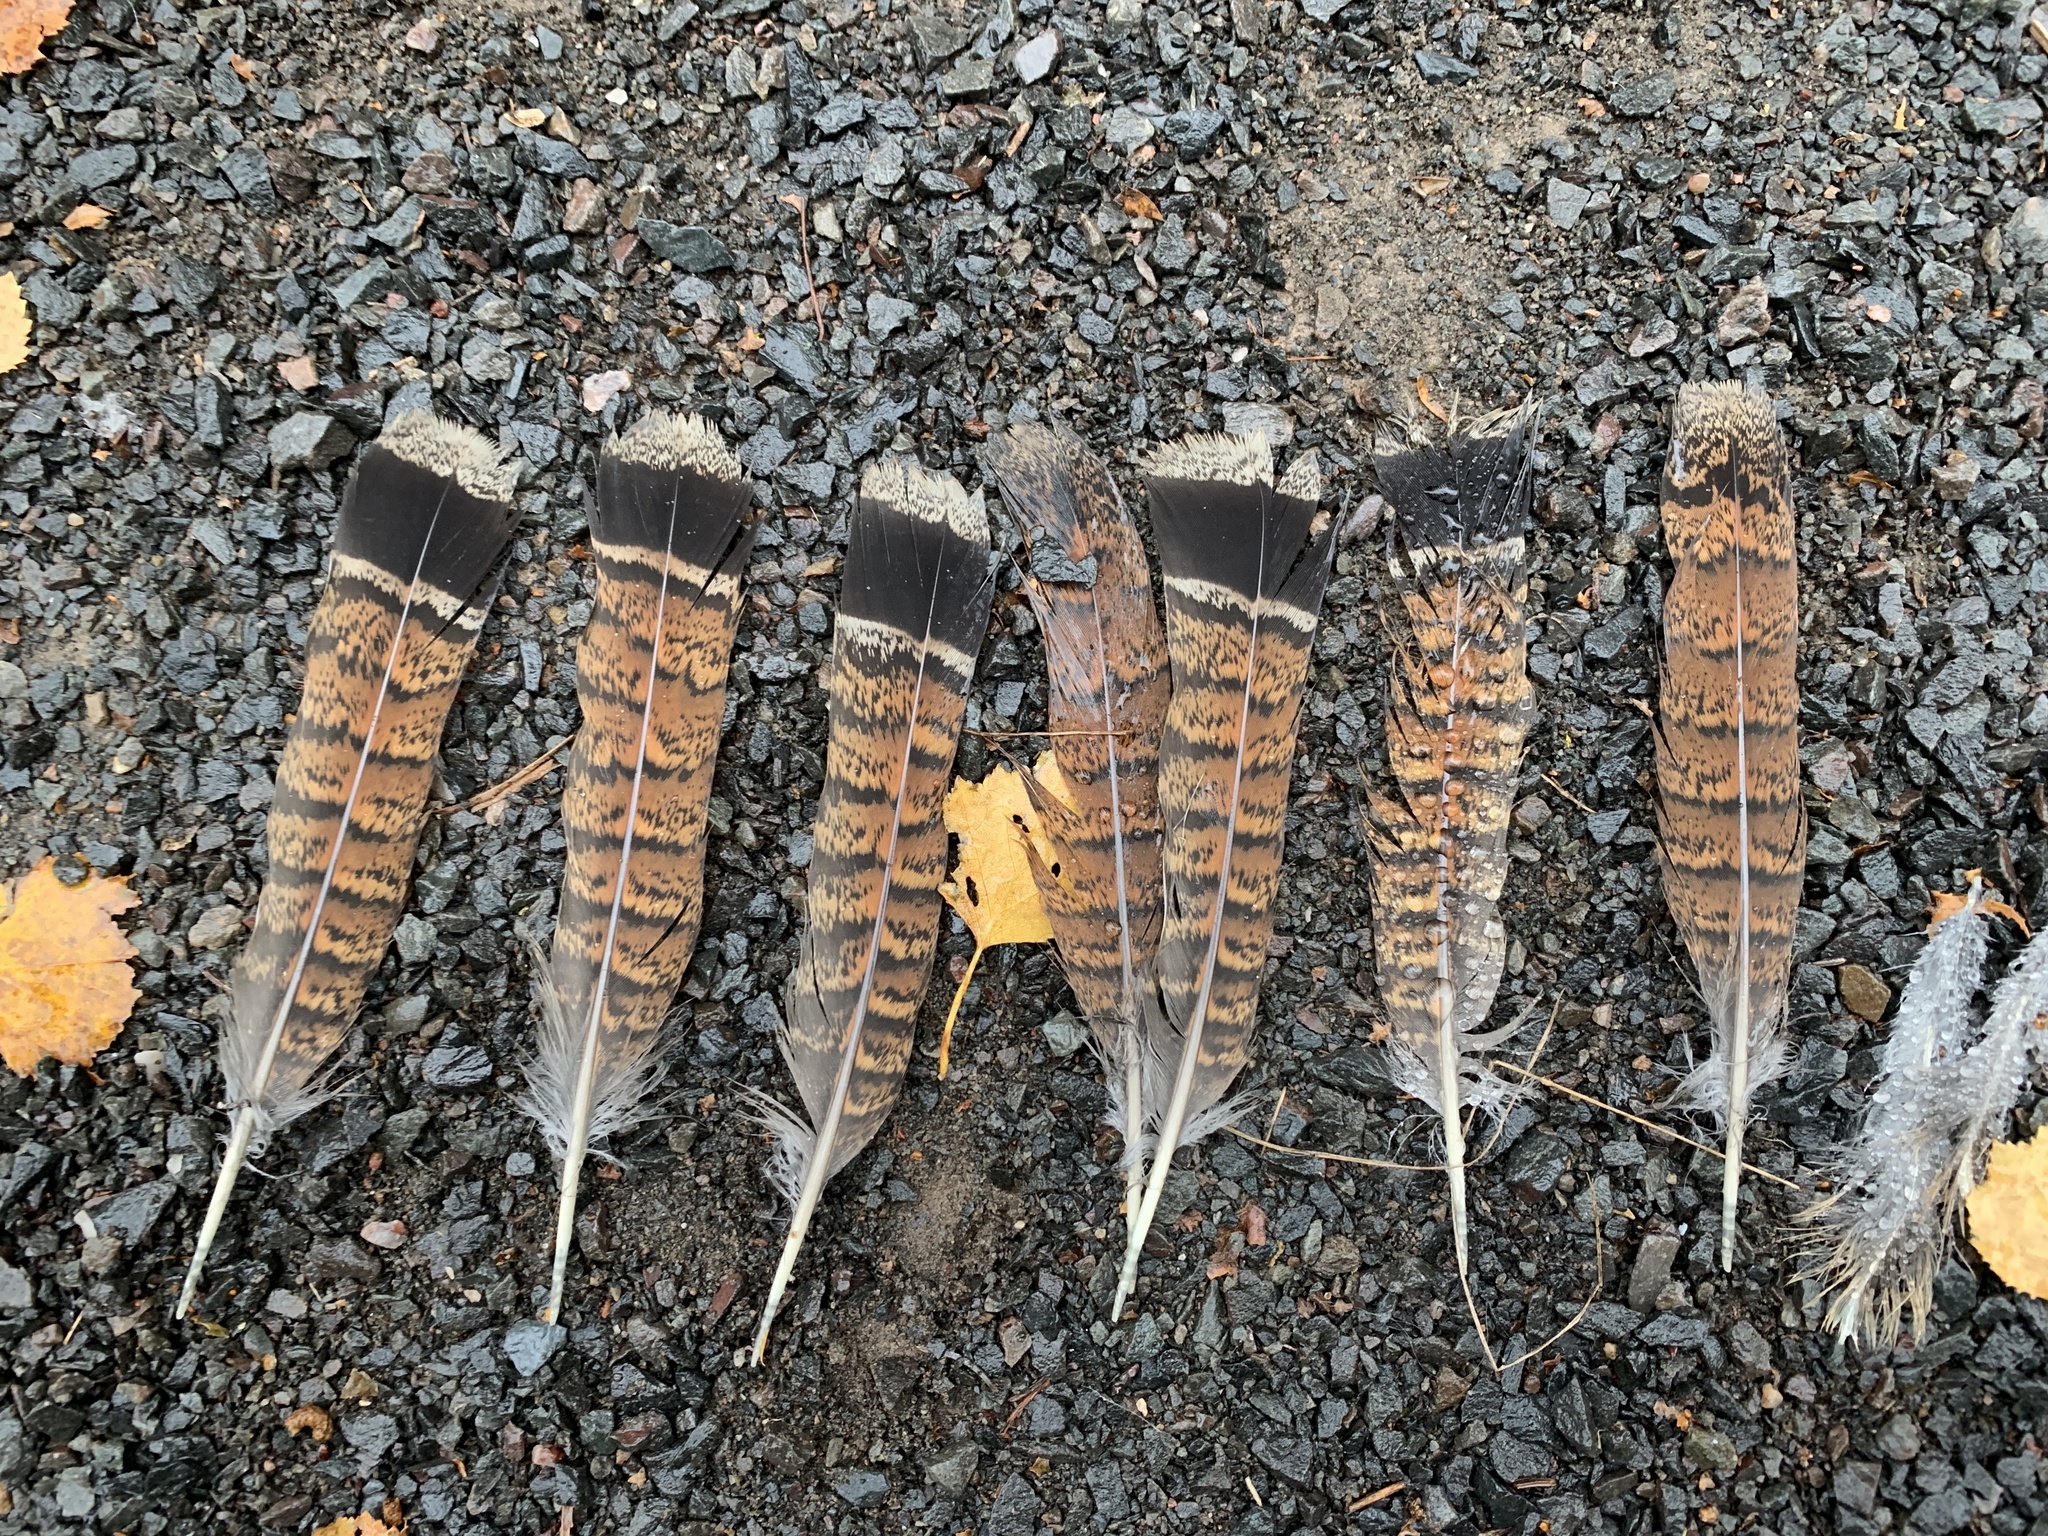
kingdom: Animalia
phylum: Chordata
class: Aves
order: Galliformes
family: Phasianidae
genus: Bonasa
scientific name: Bonasa umbellus
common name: Ruffed grouse
